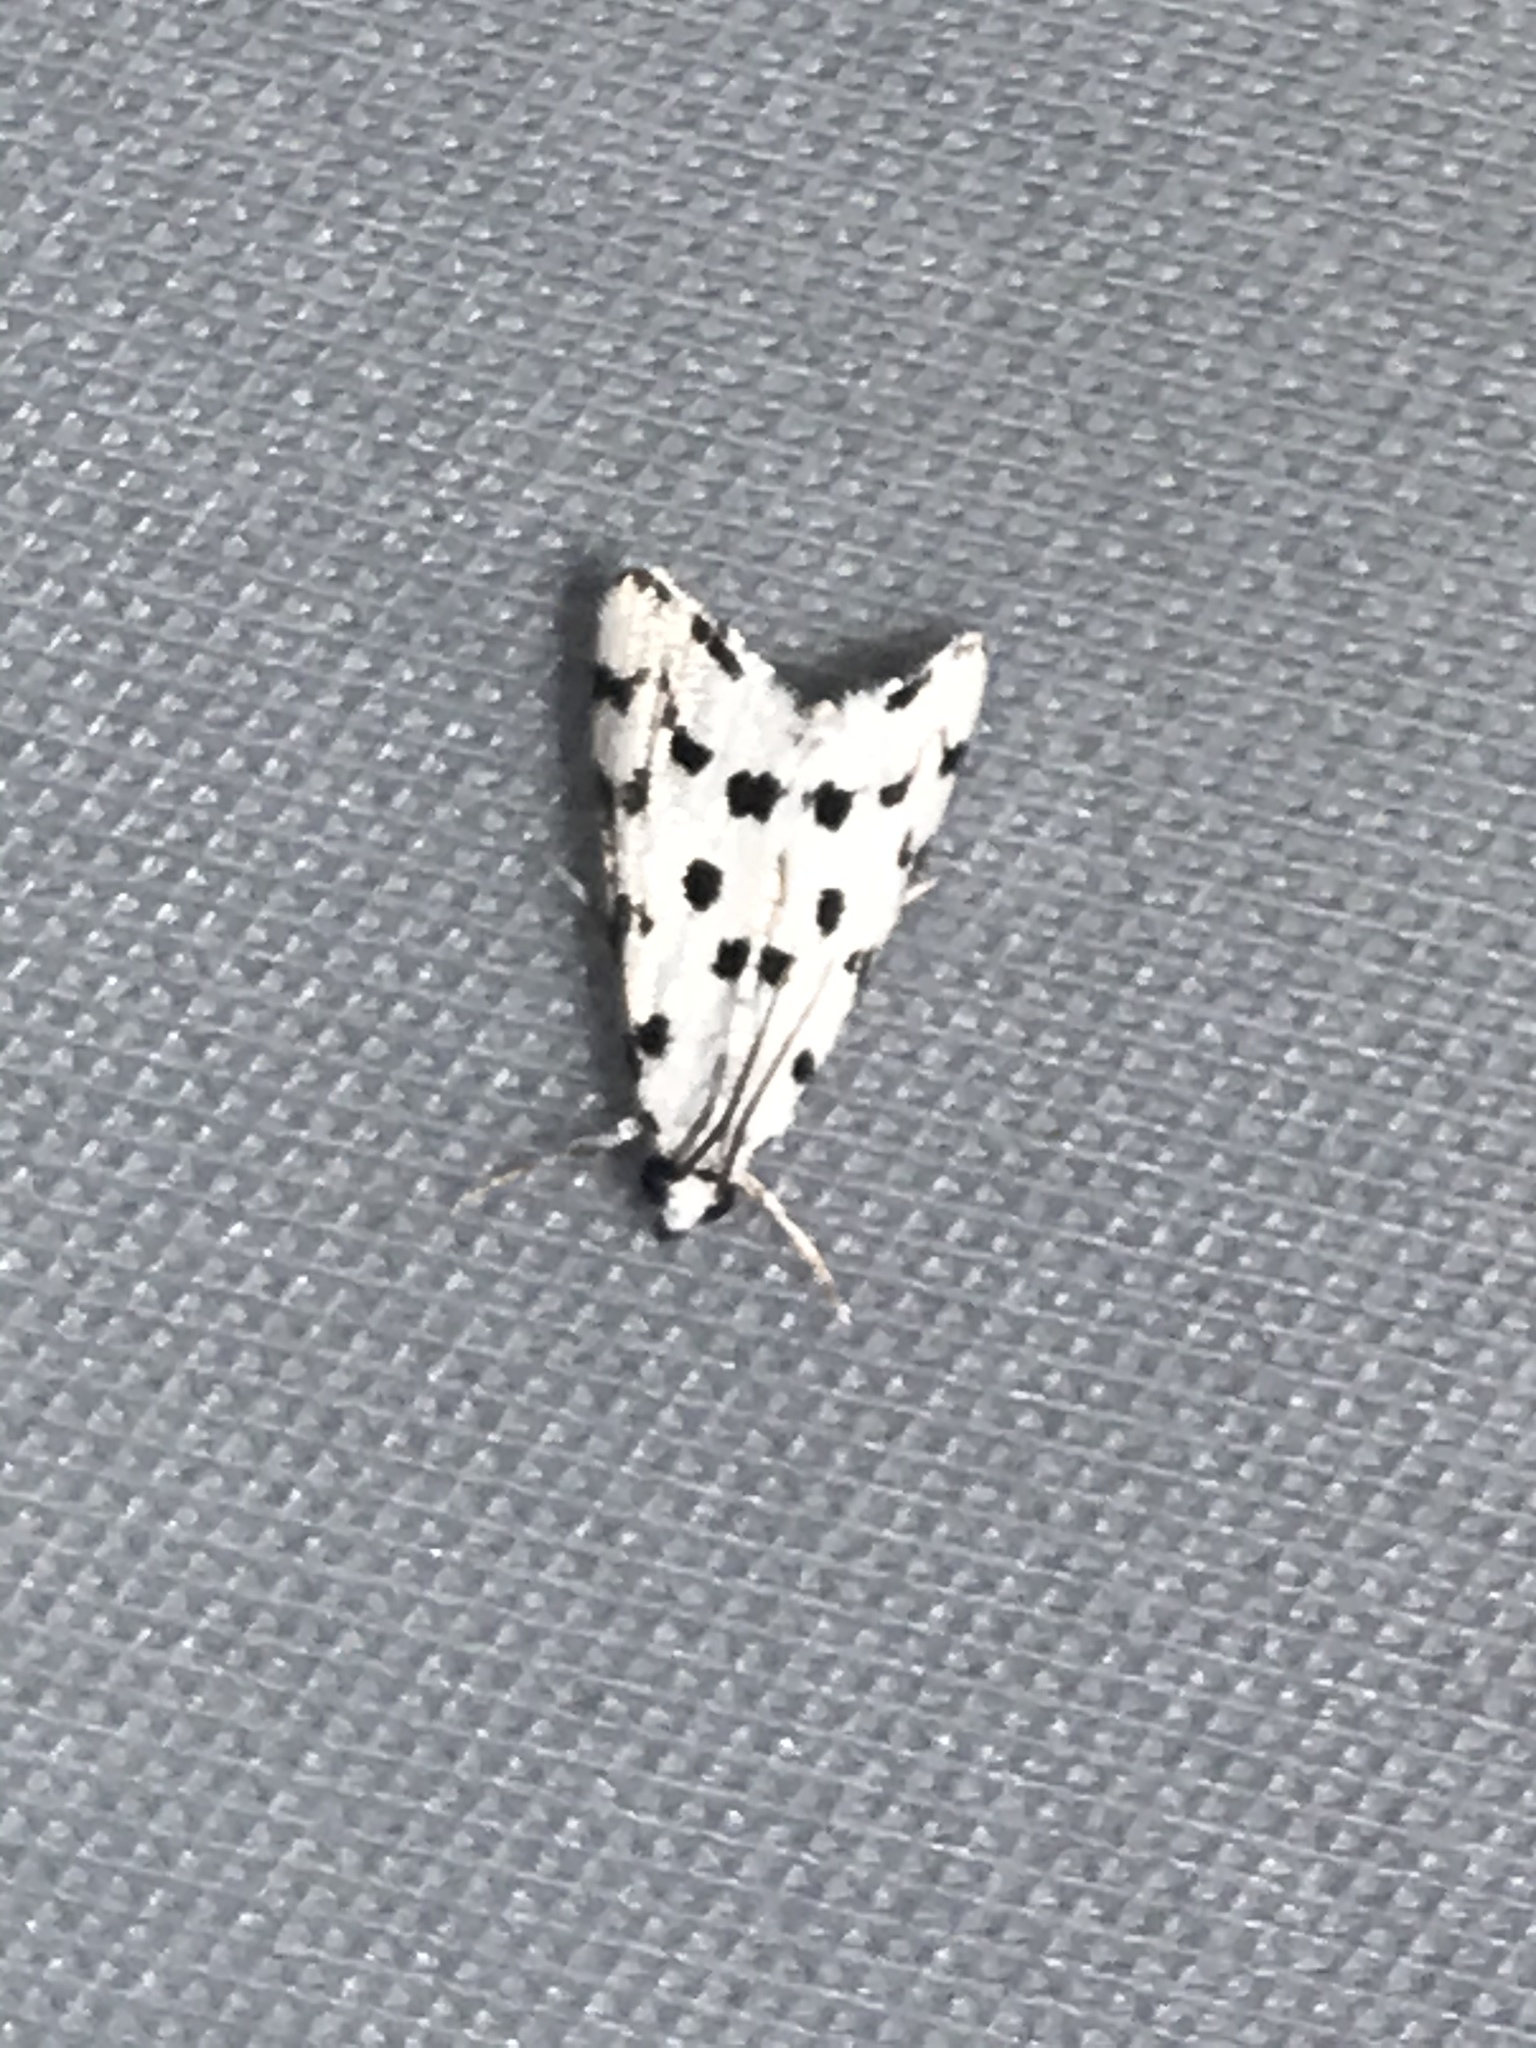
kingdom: Animalia
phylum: Arthropoda
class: Insecta
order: Lepidoptera
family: Crambidae
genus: Eustixia
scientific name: Eustixia pupula
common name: American cabbage pearl
